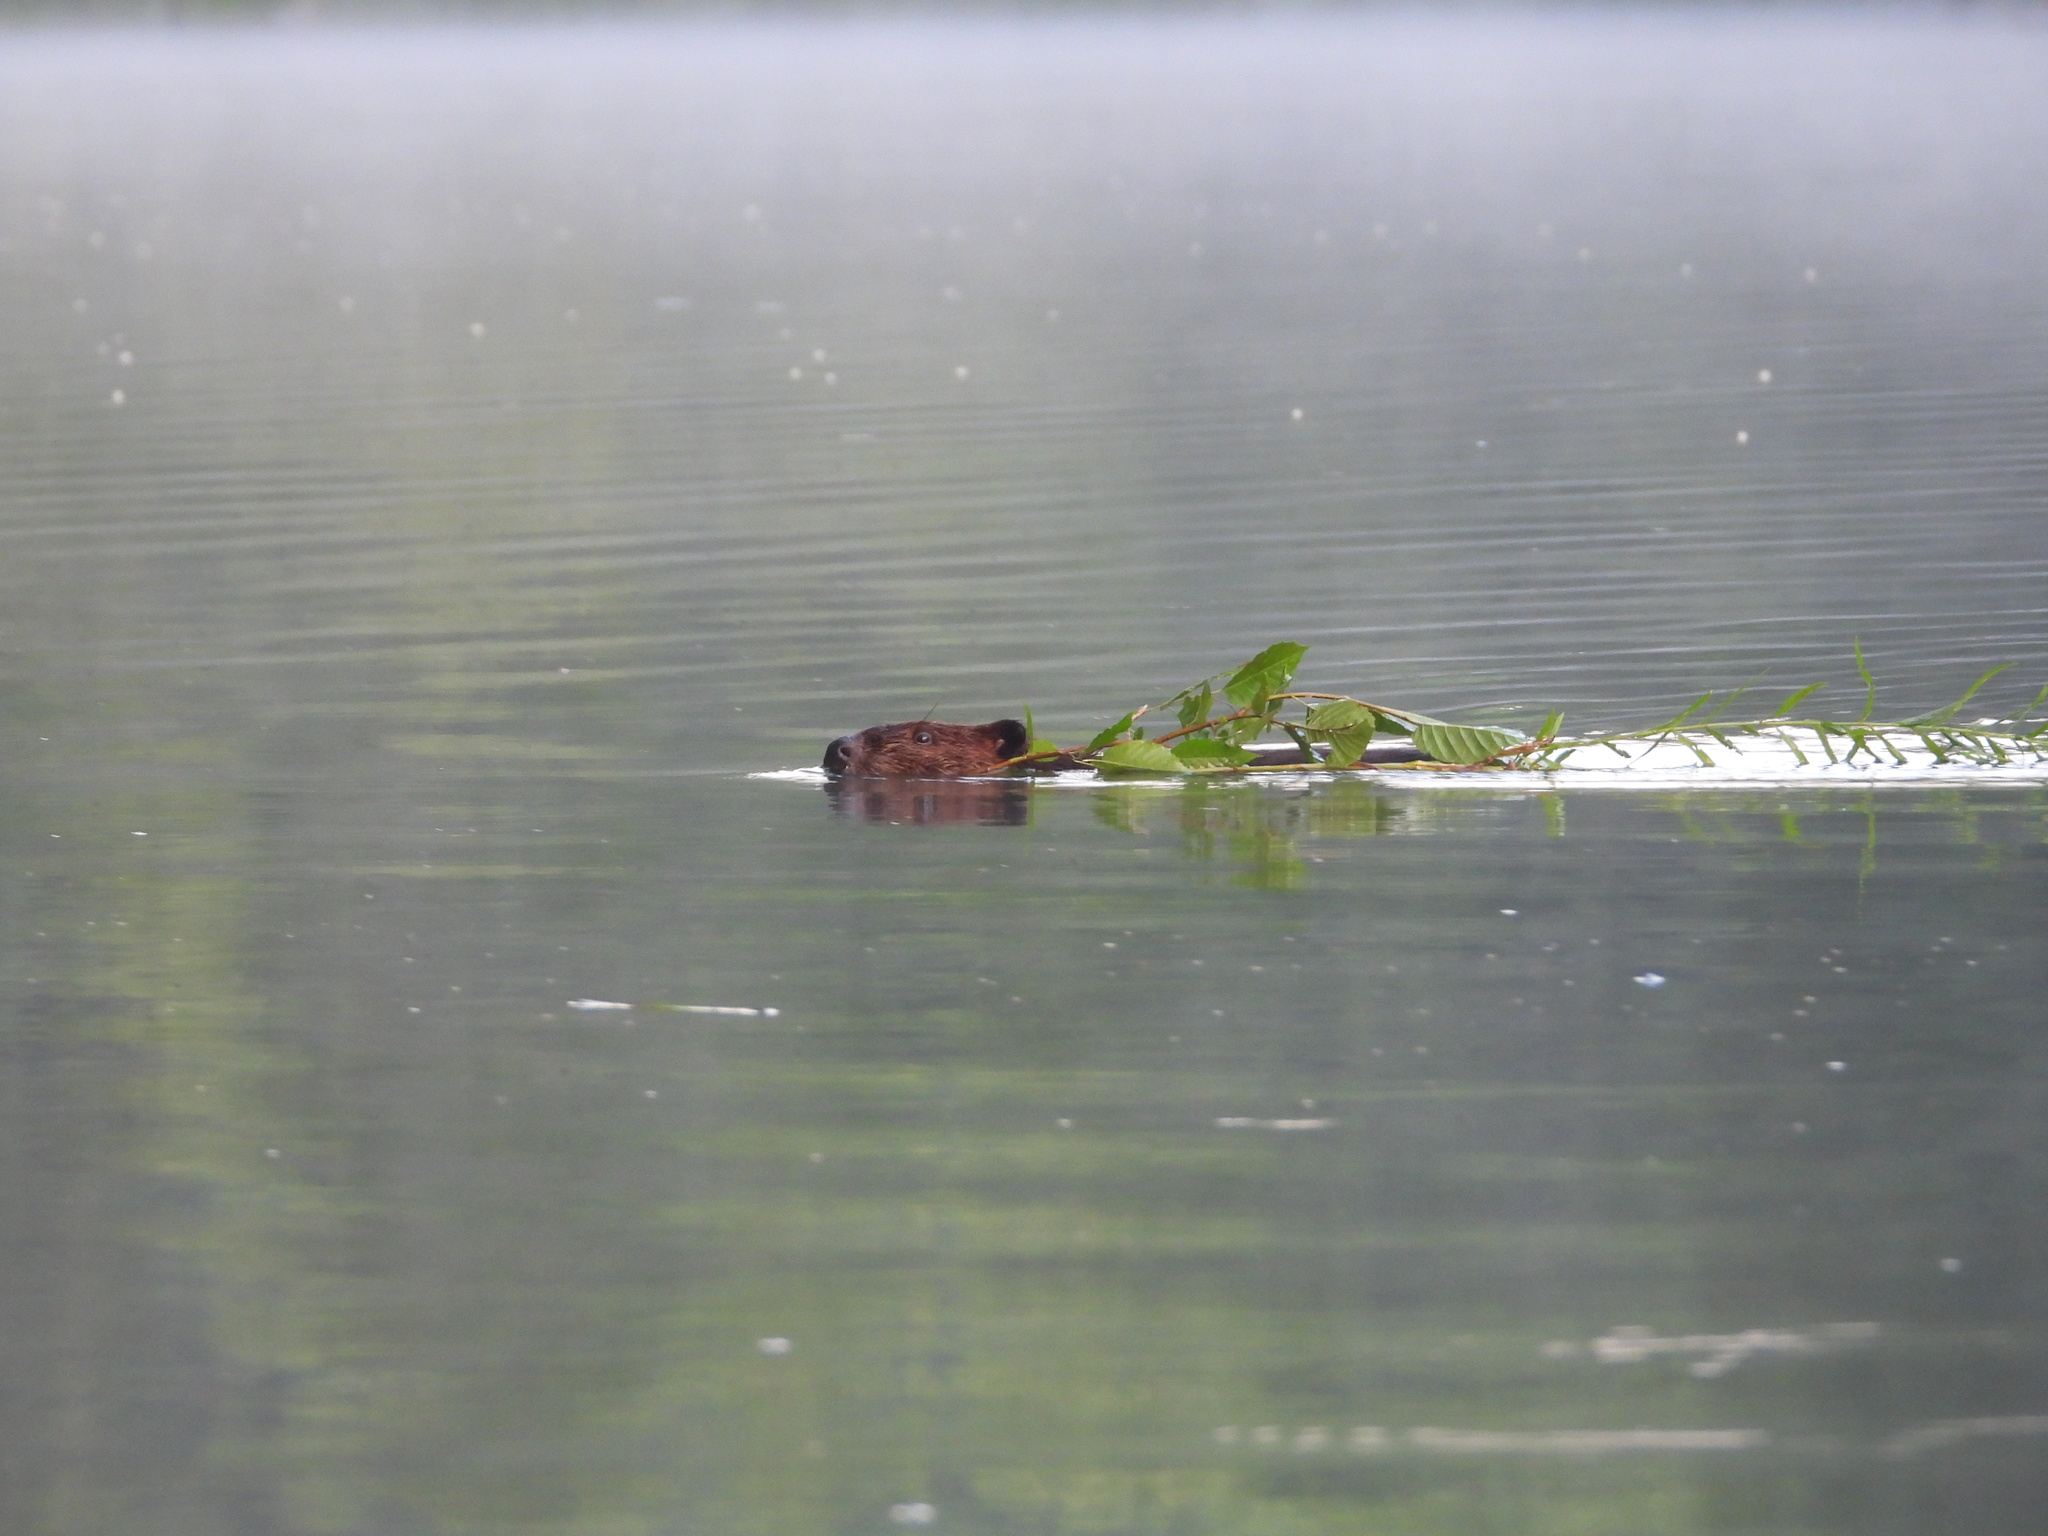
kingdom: Animalia
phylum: Chordata
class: Mammalia
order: Rodentia
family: Castoridae
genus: Castor
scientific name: Castor canadensis
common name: American beaver
